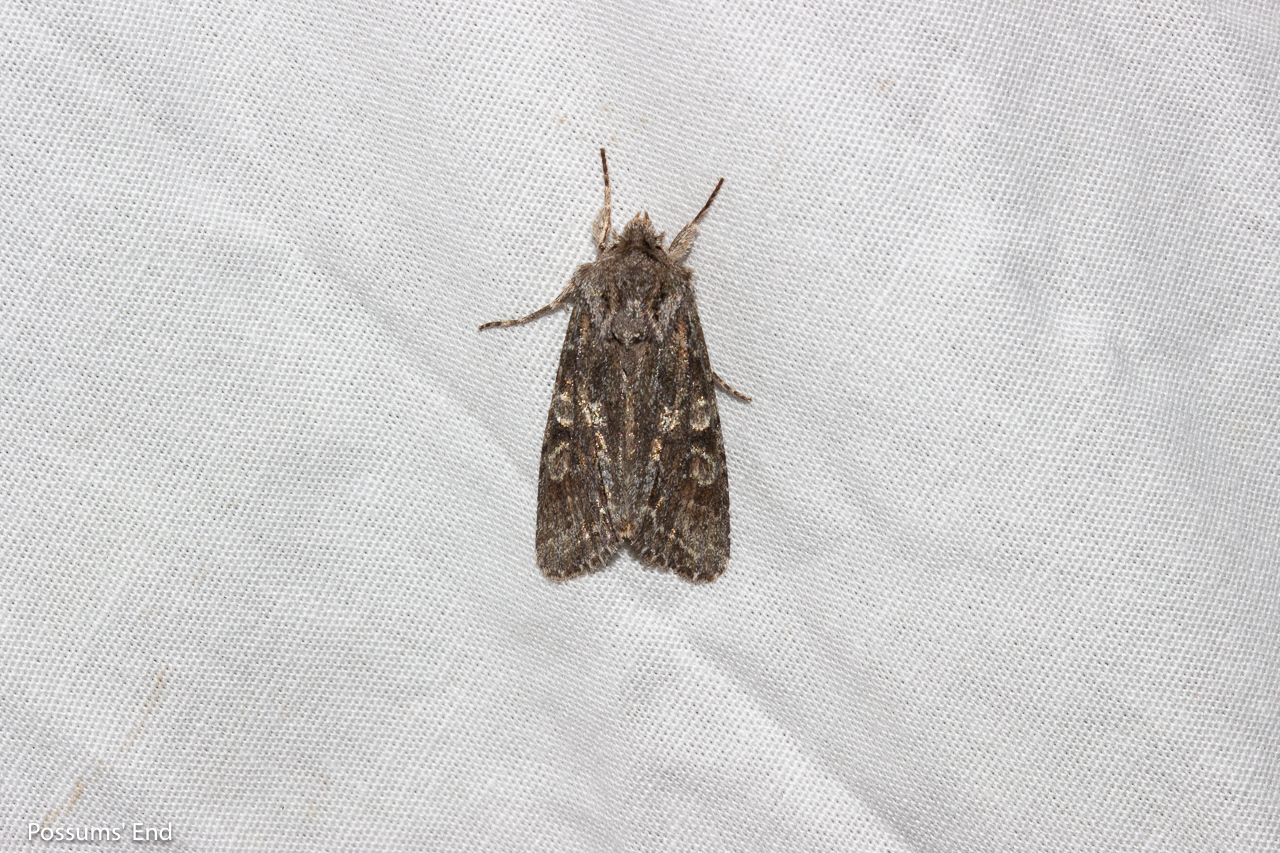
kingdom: Animalia
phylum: Arthropoda
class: Insecta
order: Lepidoptera
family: Noctuidae
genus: Ichneutica
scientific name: Ichneutica mutans
